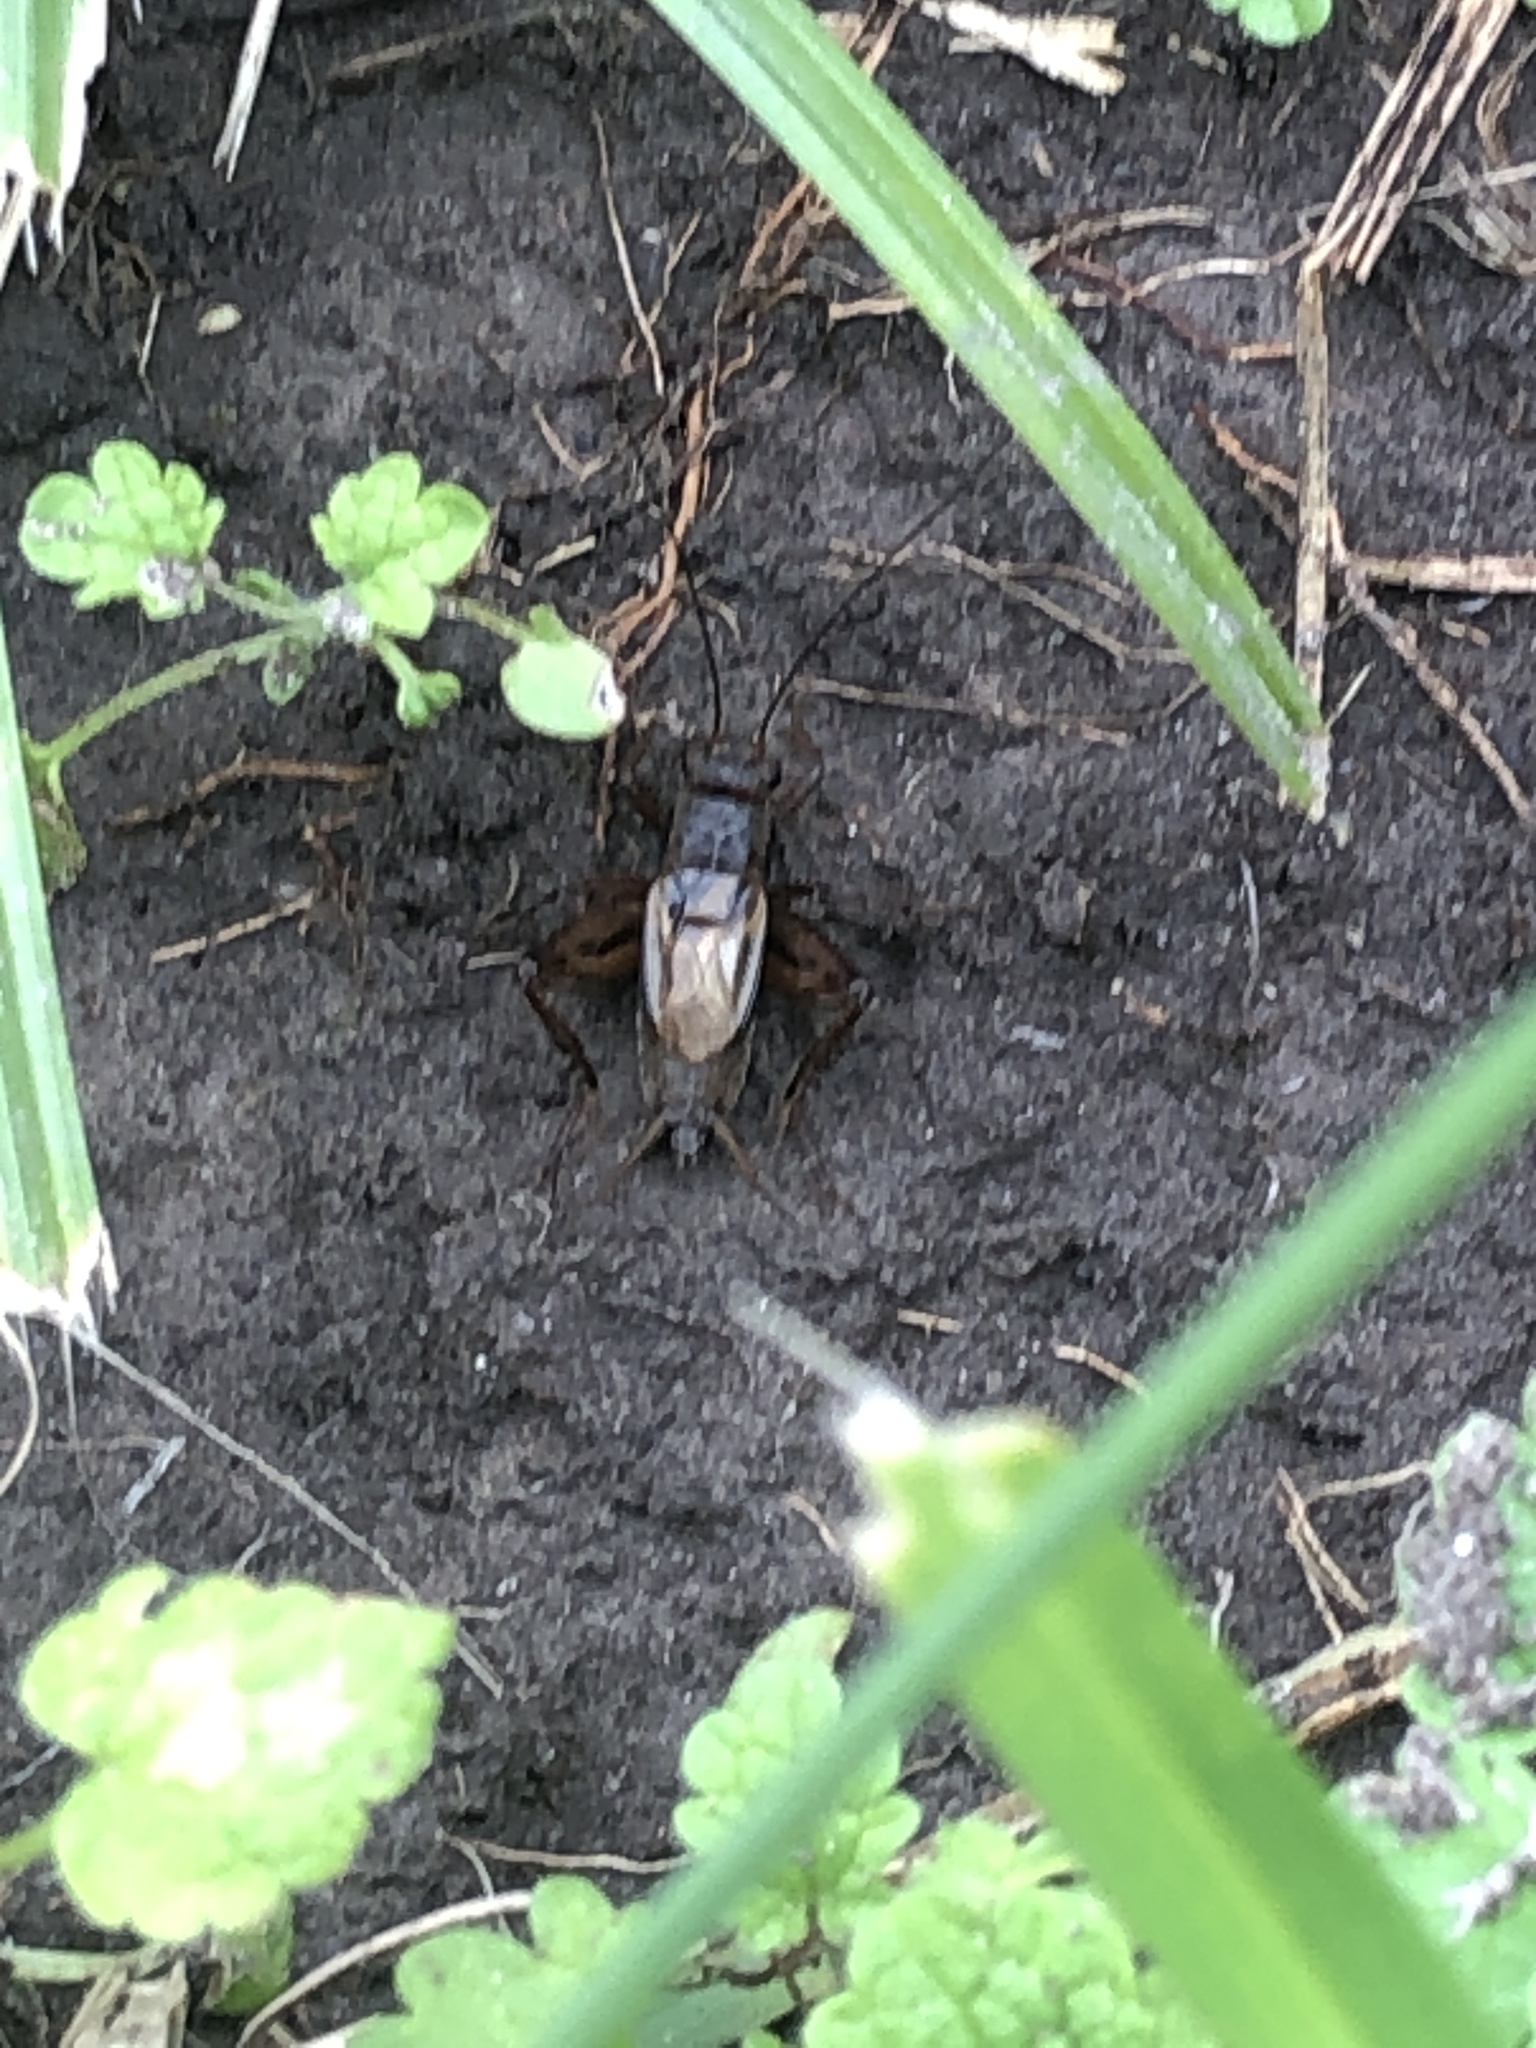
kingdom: Animalia
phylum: Arthropoda
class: Insecta
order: Orthoptera
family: Gryllidae
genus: Gryllus
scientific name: Gryllus pennsylvanicus
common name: Fall field cricket
